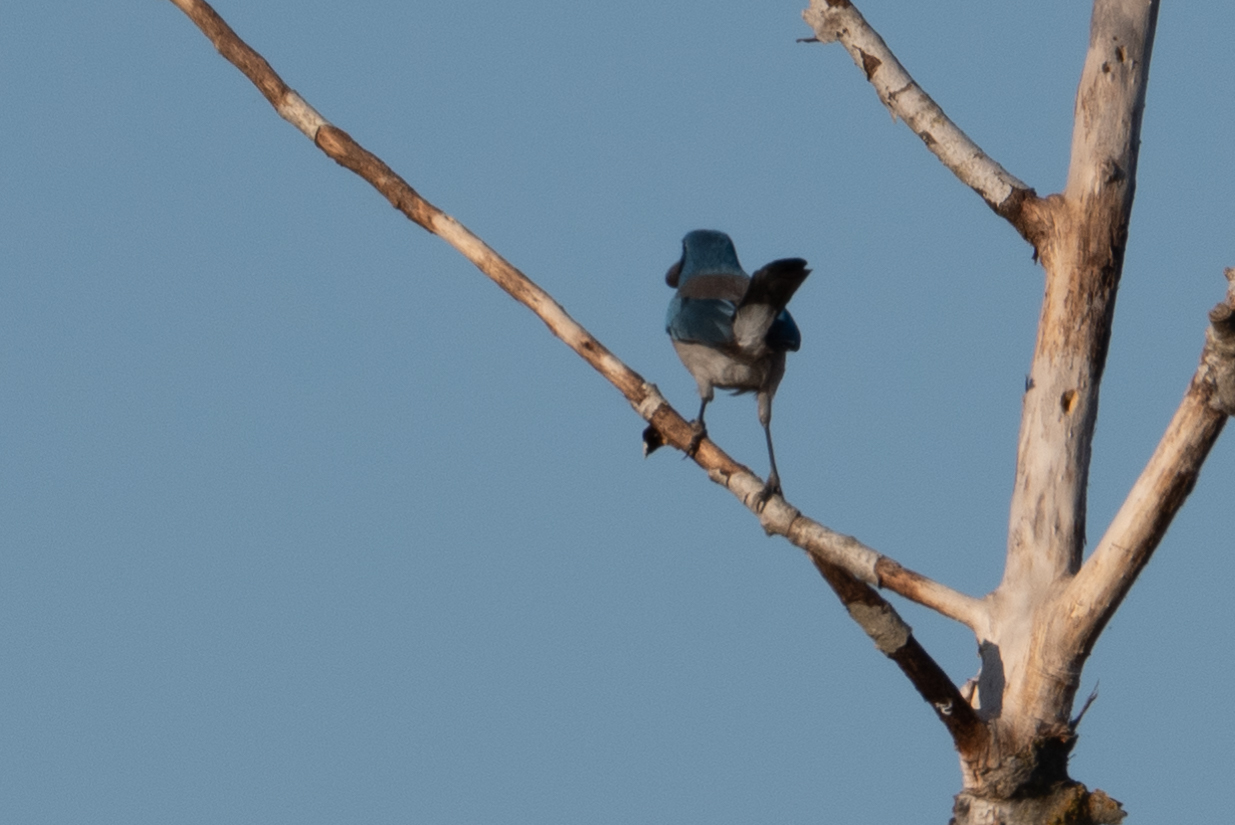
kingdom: Animalia
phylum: Chordata
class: Aves
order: Passeriformes
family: Corvidae
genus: Aphelocoma
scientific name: Aphelocoma californica
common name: California scrub-jay
